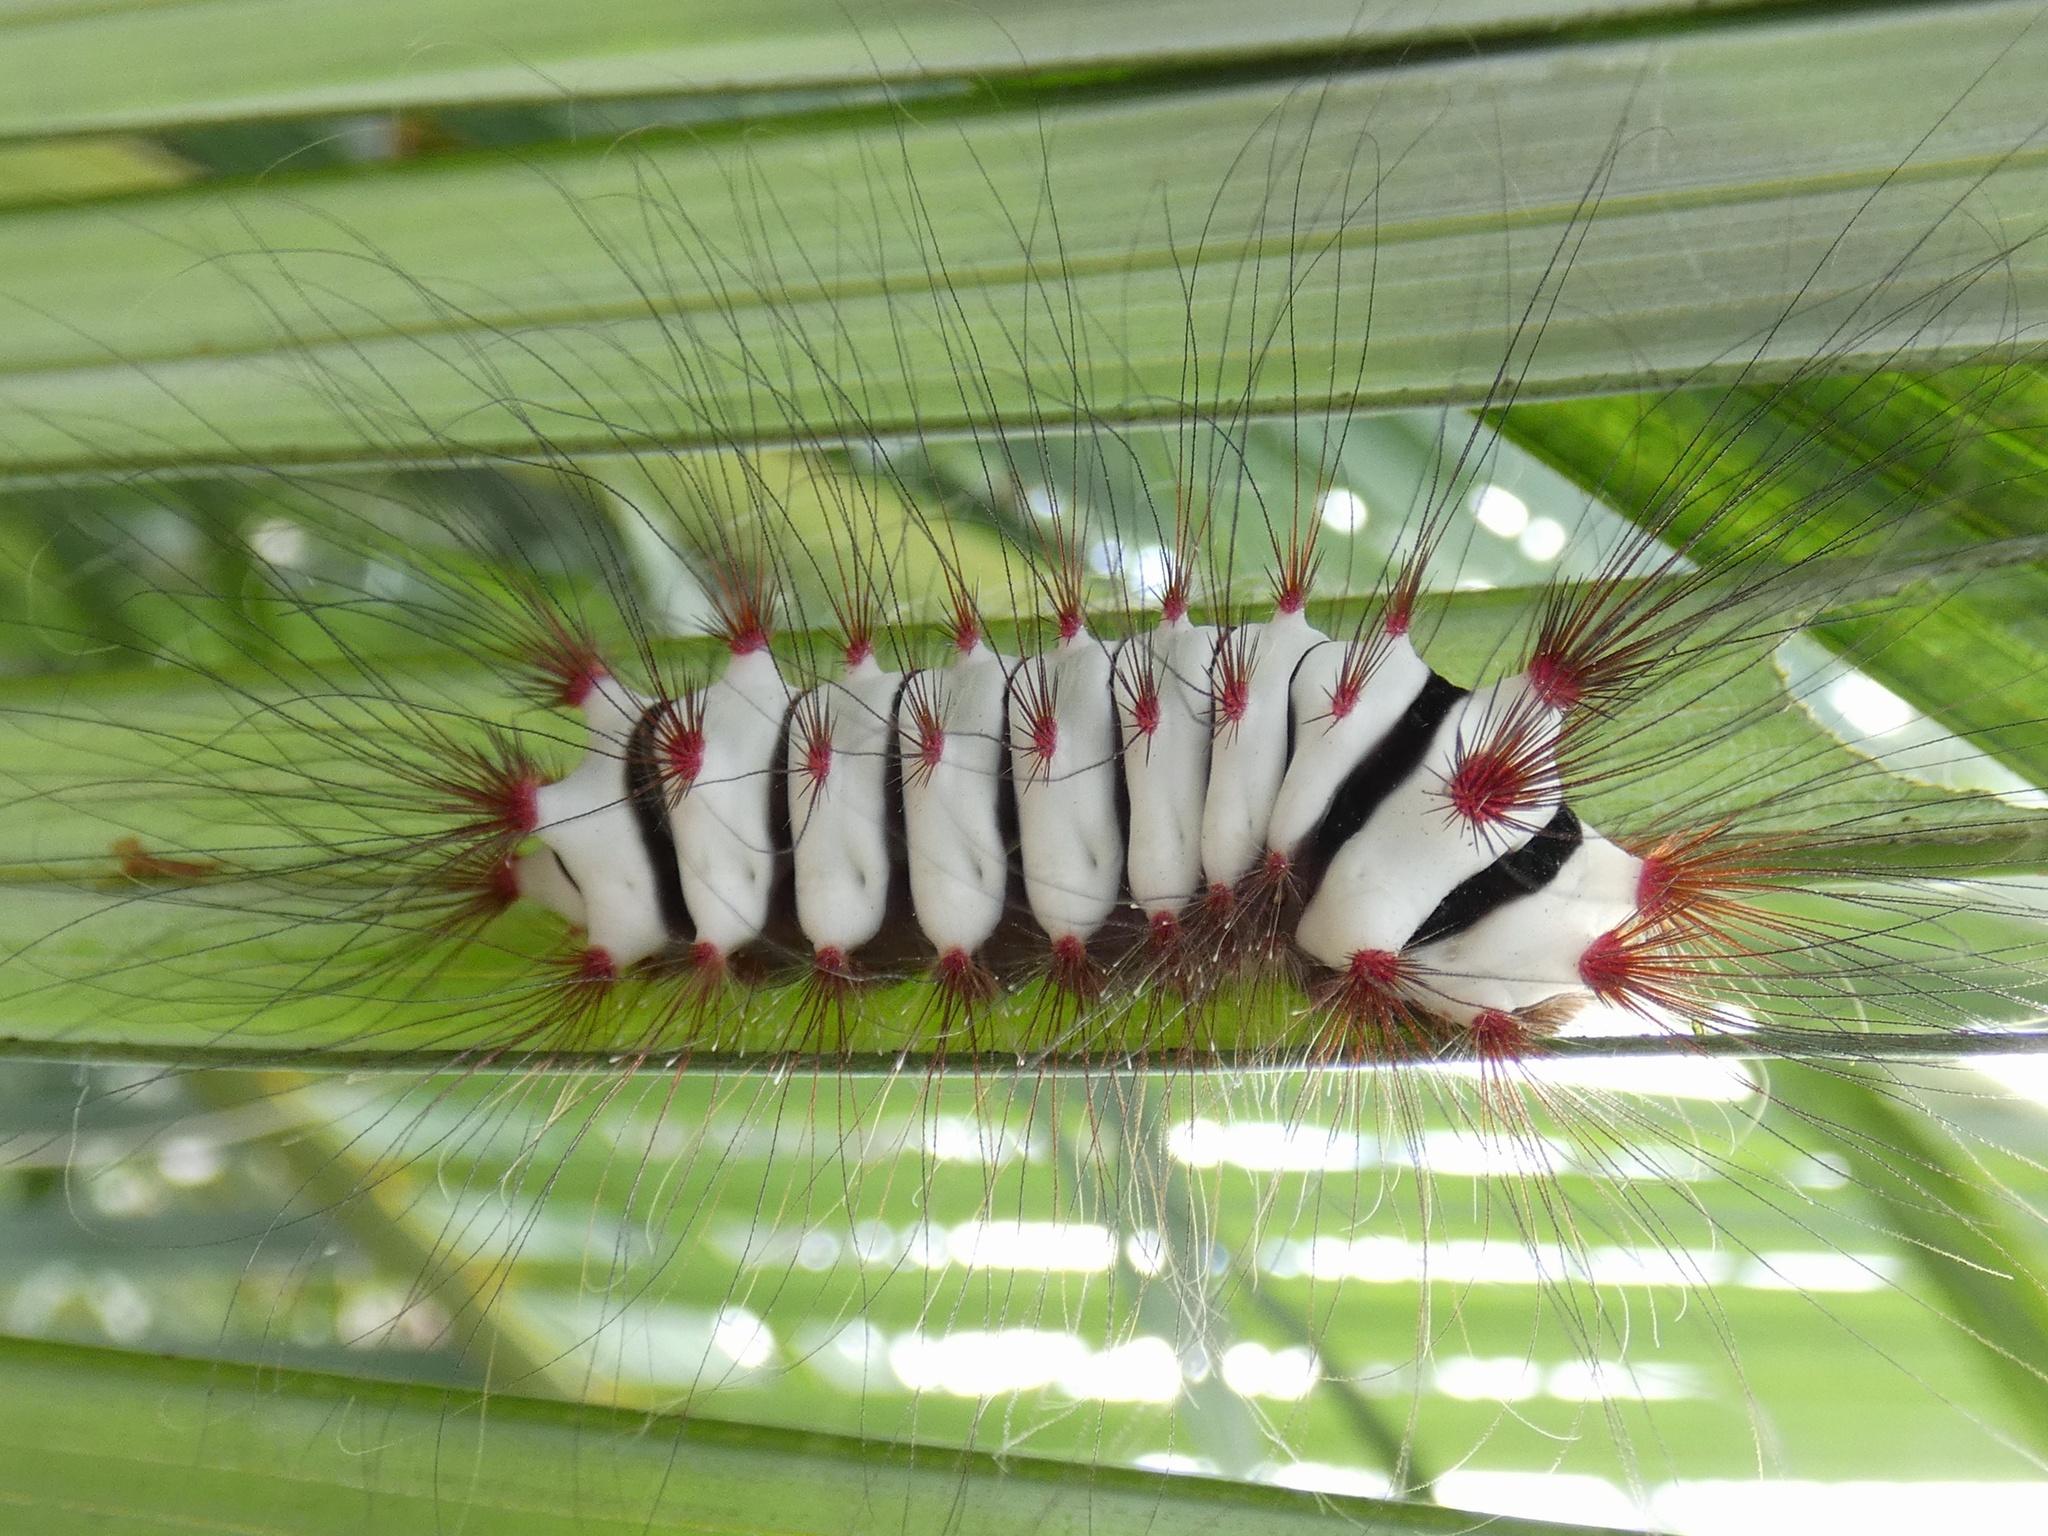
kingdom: Animalia
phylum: Arthropoda
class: Insecta
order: Lepidoptera
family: Megalopygidae
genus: Megalopyge
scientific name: Megalopyge lanata
